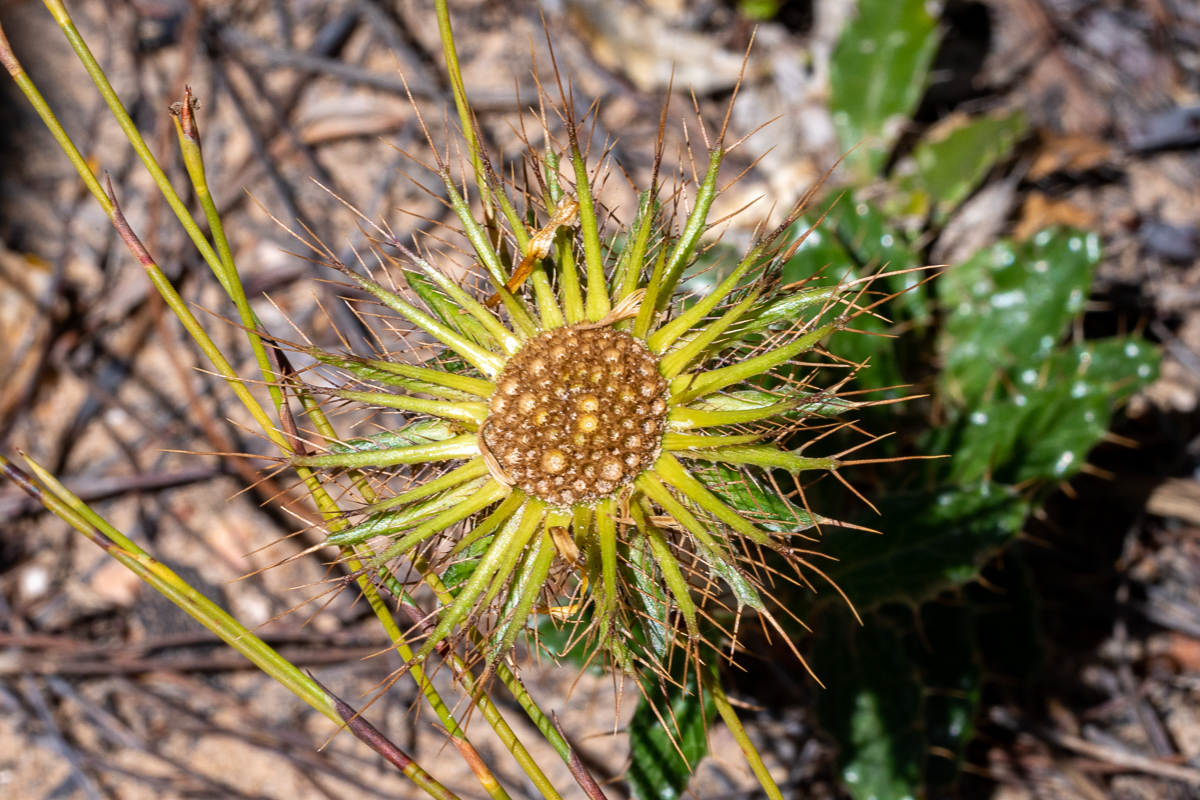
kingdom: Plantae
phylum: Tracheophyta
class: Magnoliopsida
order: Asterales
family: Asteraceae
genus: Berkheya
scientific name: Berkheya barbata
